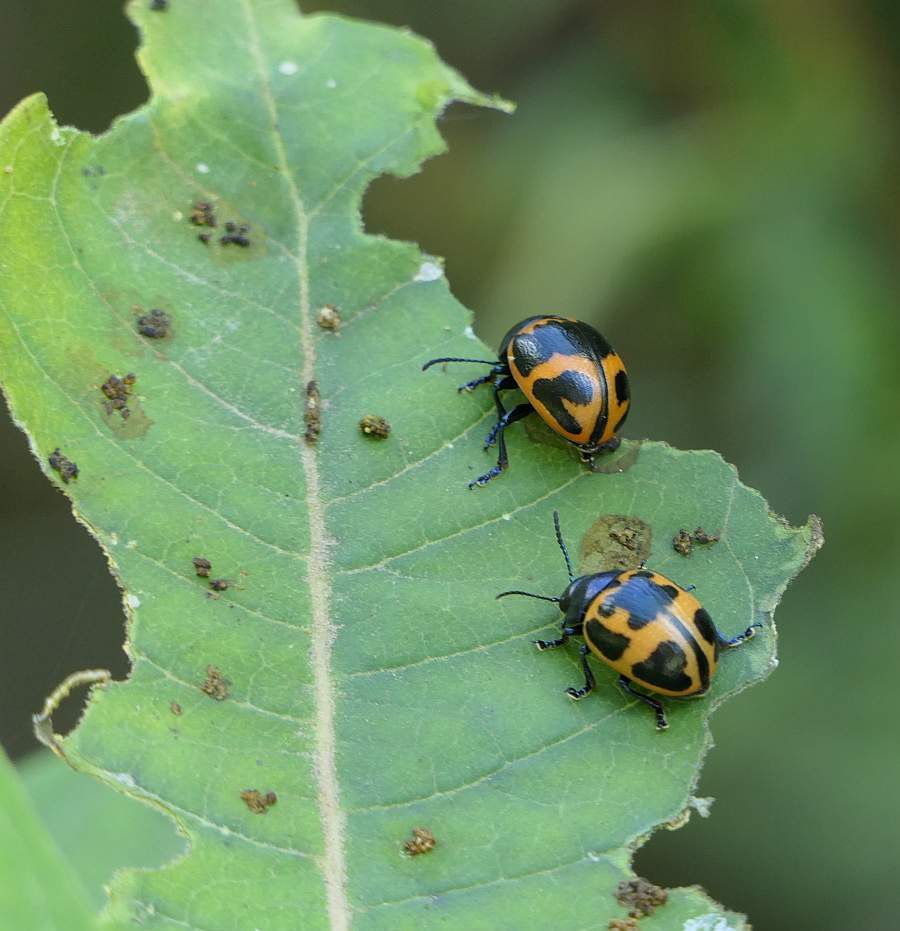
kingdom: Animalia
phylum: Arthropoda
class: Insecta
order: Coleoptera
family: Chrysomelidae
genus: Labidomera
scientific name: Labidomera clivicollis
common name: Swamp milkweed leaf beetle
